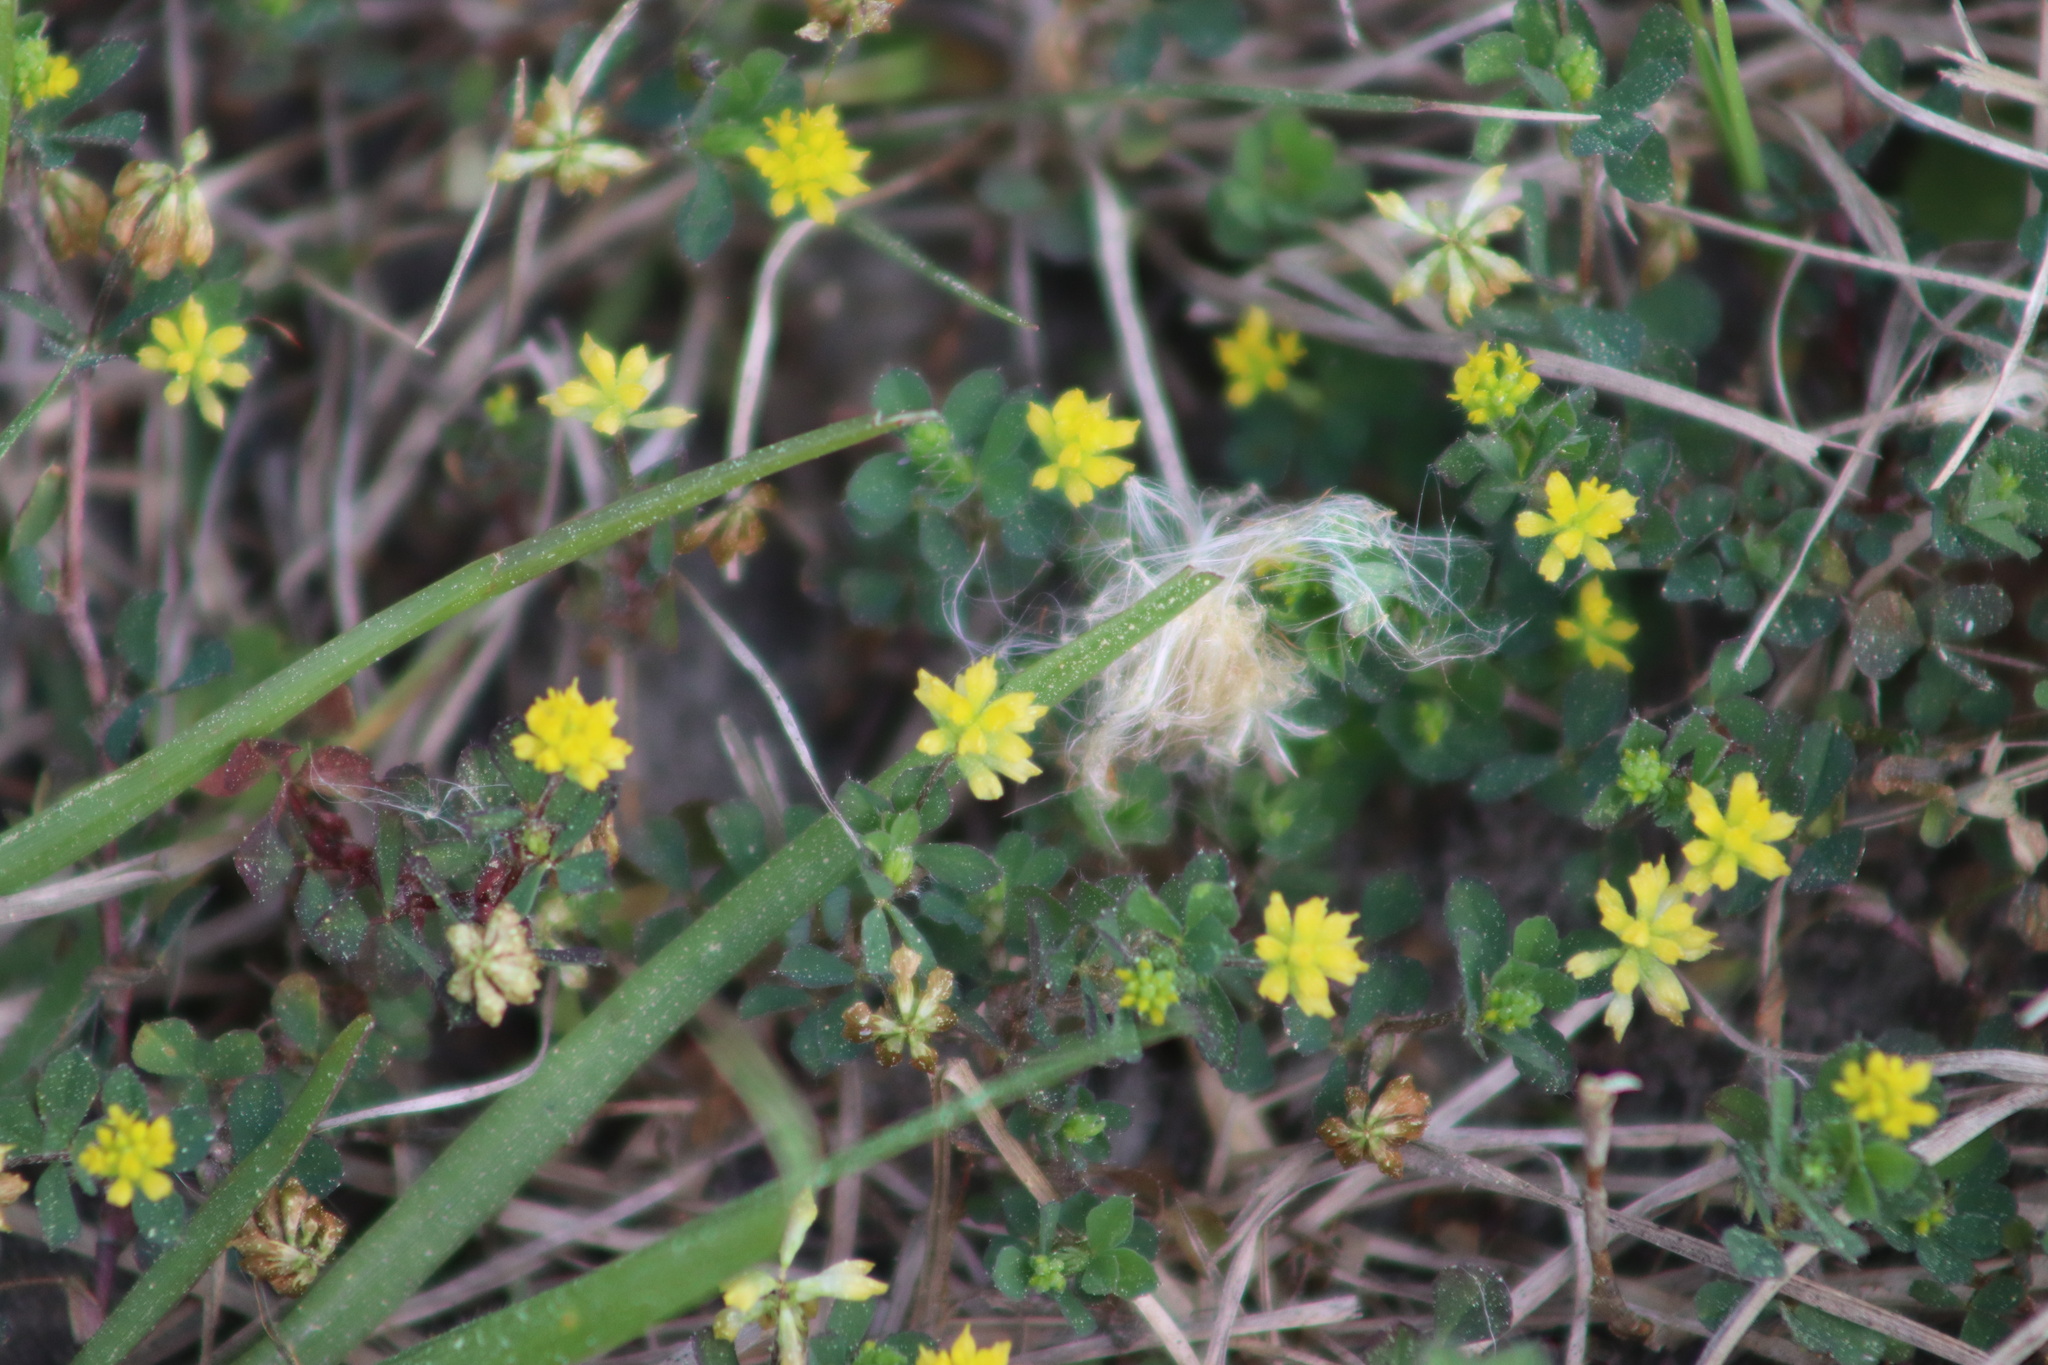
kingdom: Plantae
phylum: Tracheophyta
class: Magnoliopsida
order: Fabales
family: Fabaceae
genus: Trifolium
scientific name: Trifolium dubium
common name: Suckling clover
